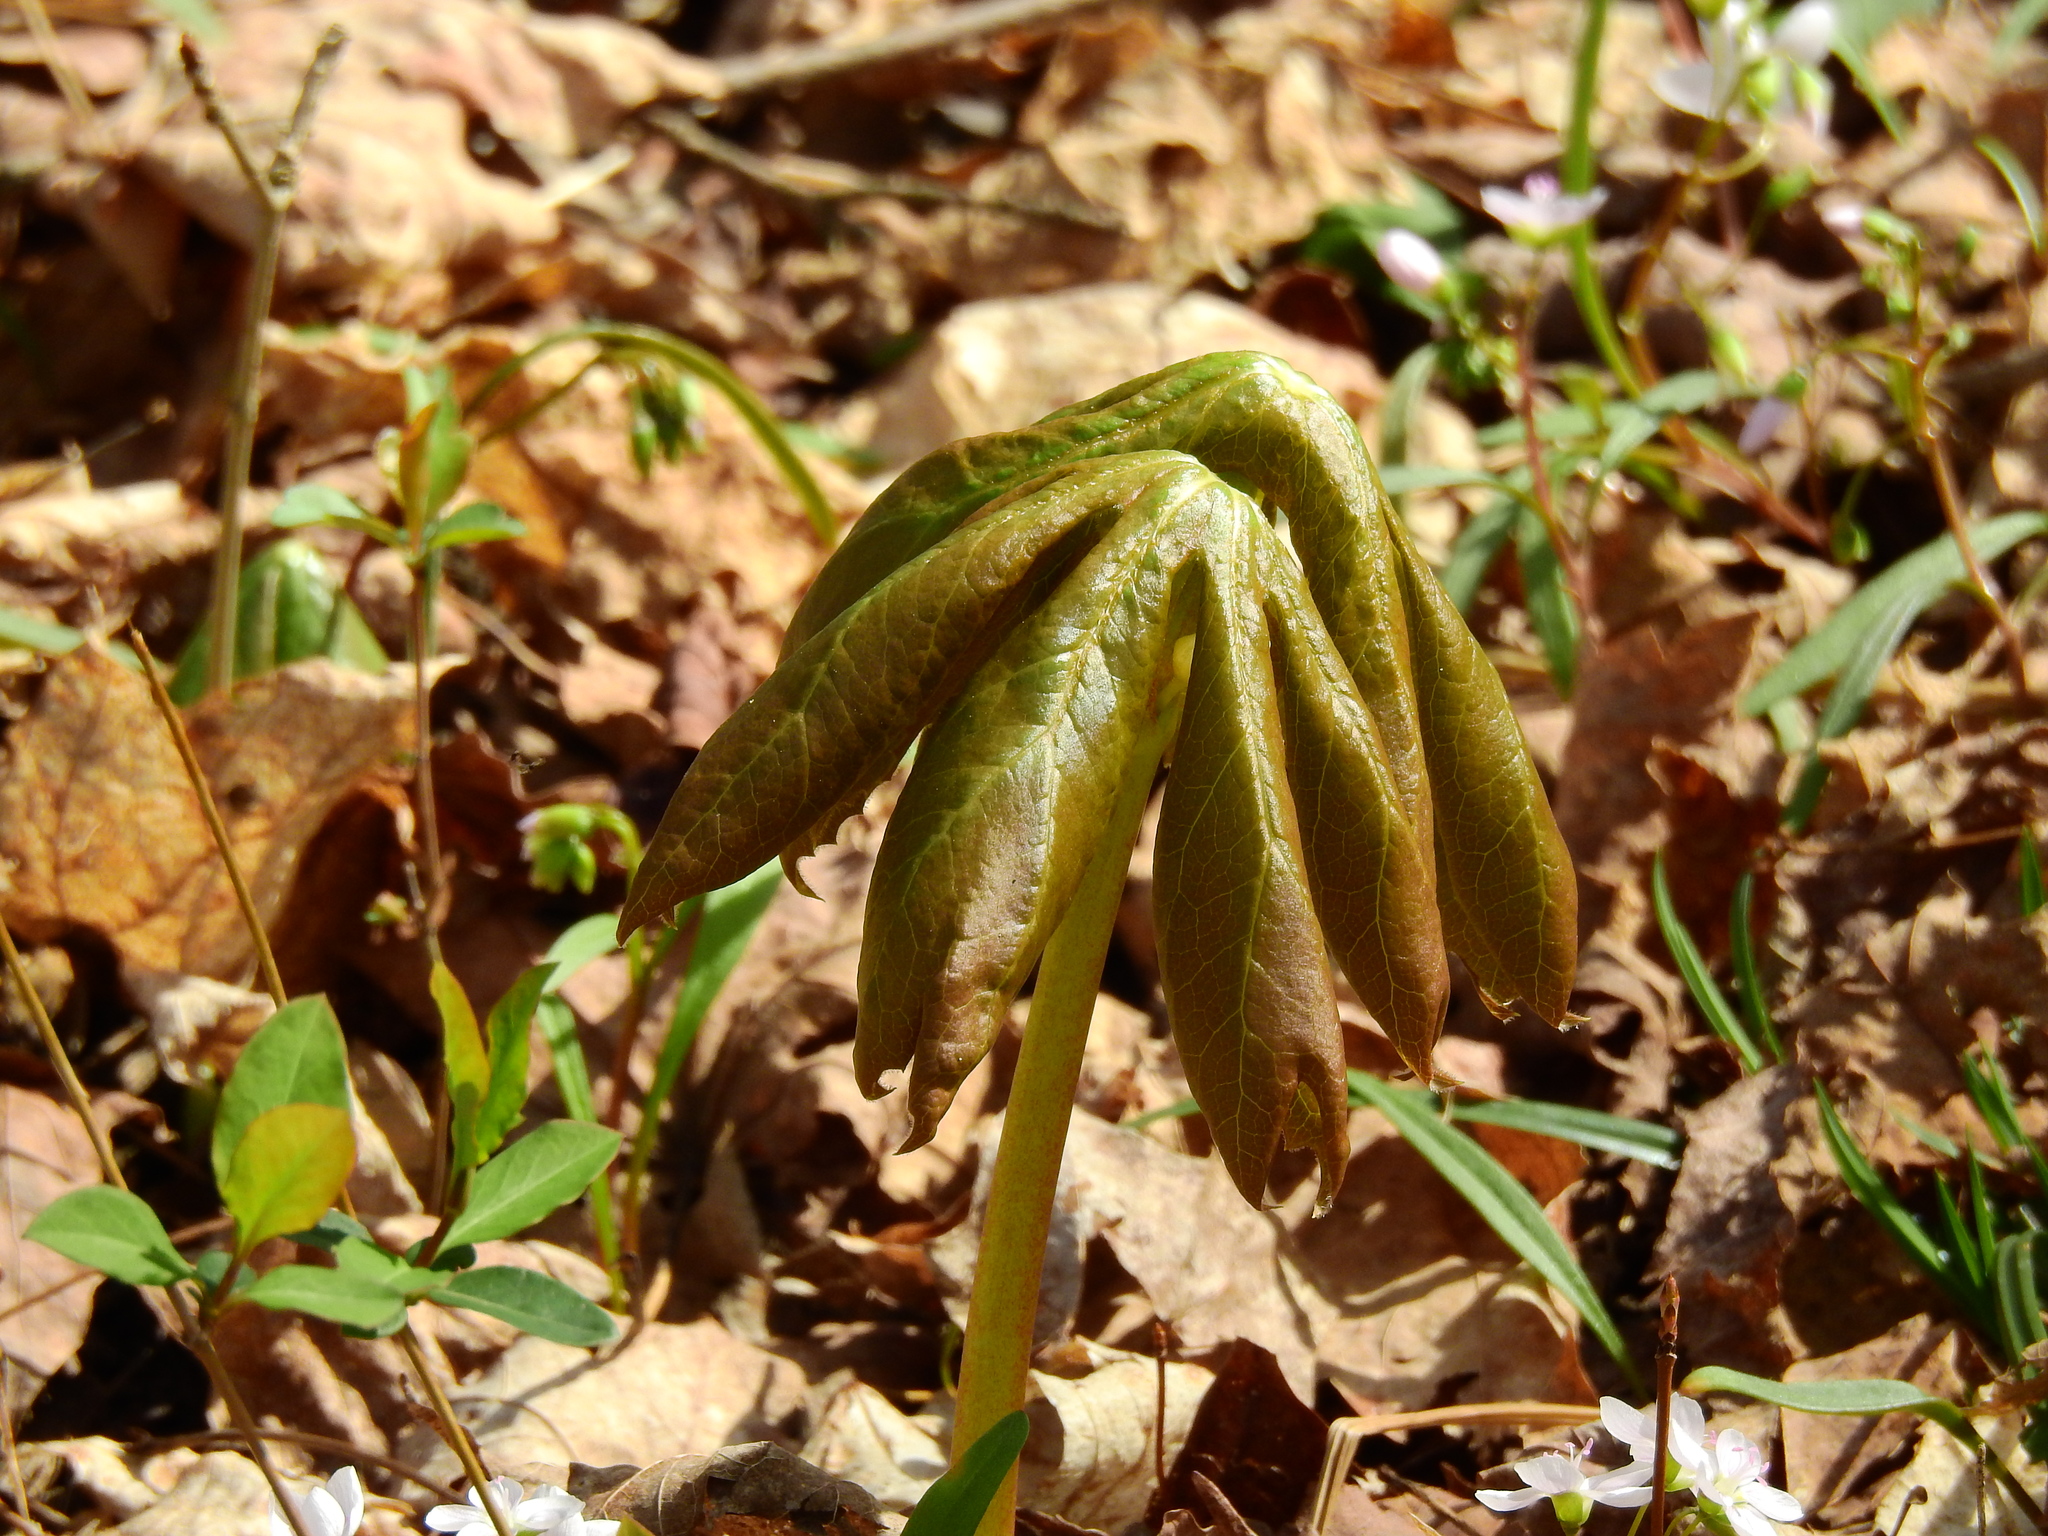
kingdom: Plantae
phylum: Tracheophyta
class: Magnoliopsida
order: Ranunculales
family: Berberidaceae
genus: Podophyllum
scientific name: Podophyllum peltatum
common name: Wild mandrake
